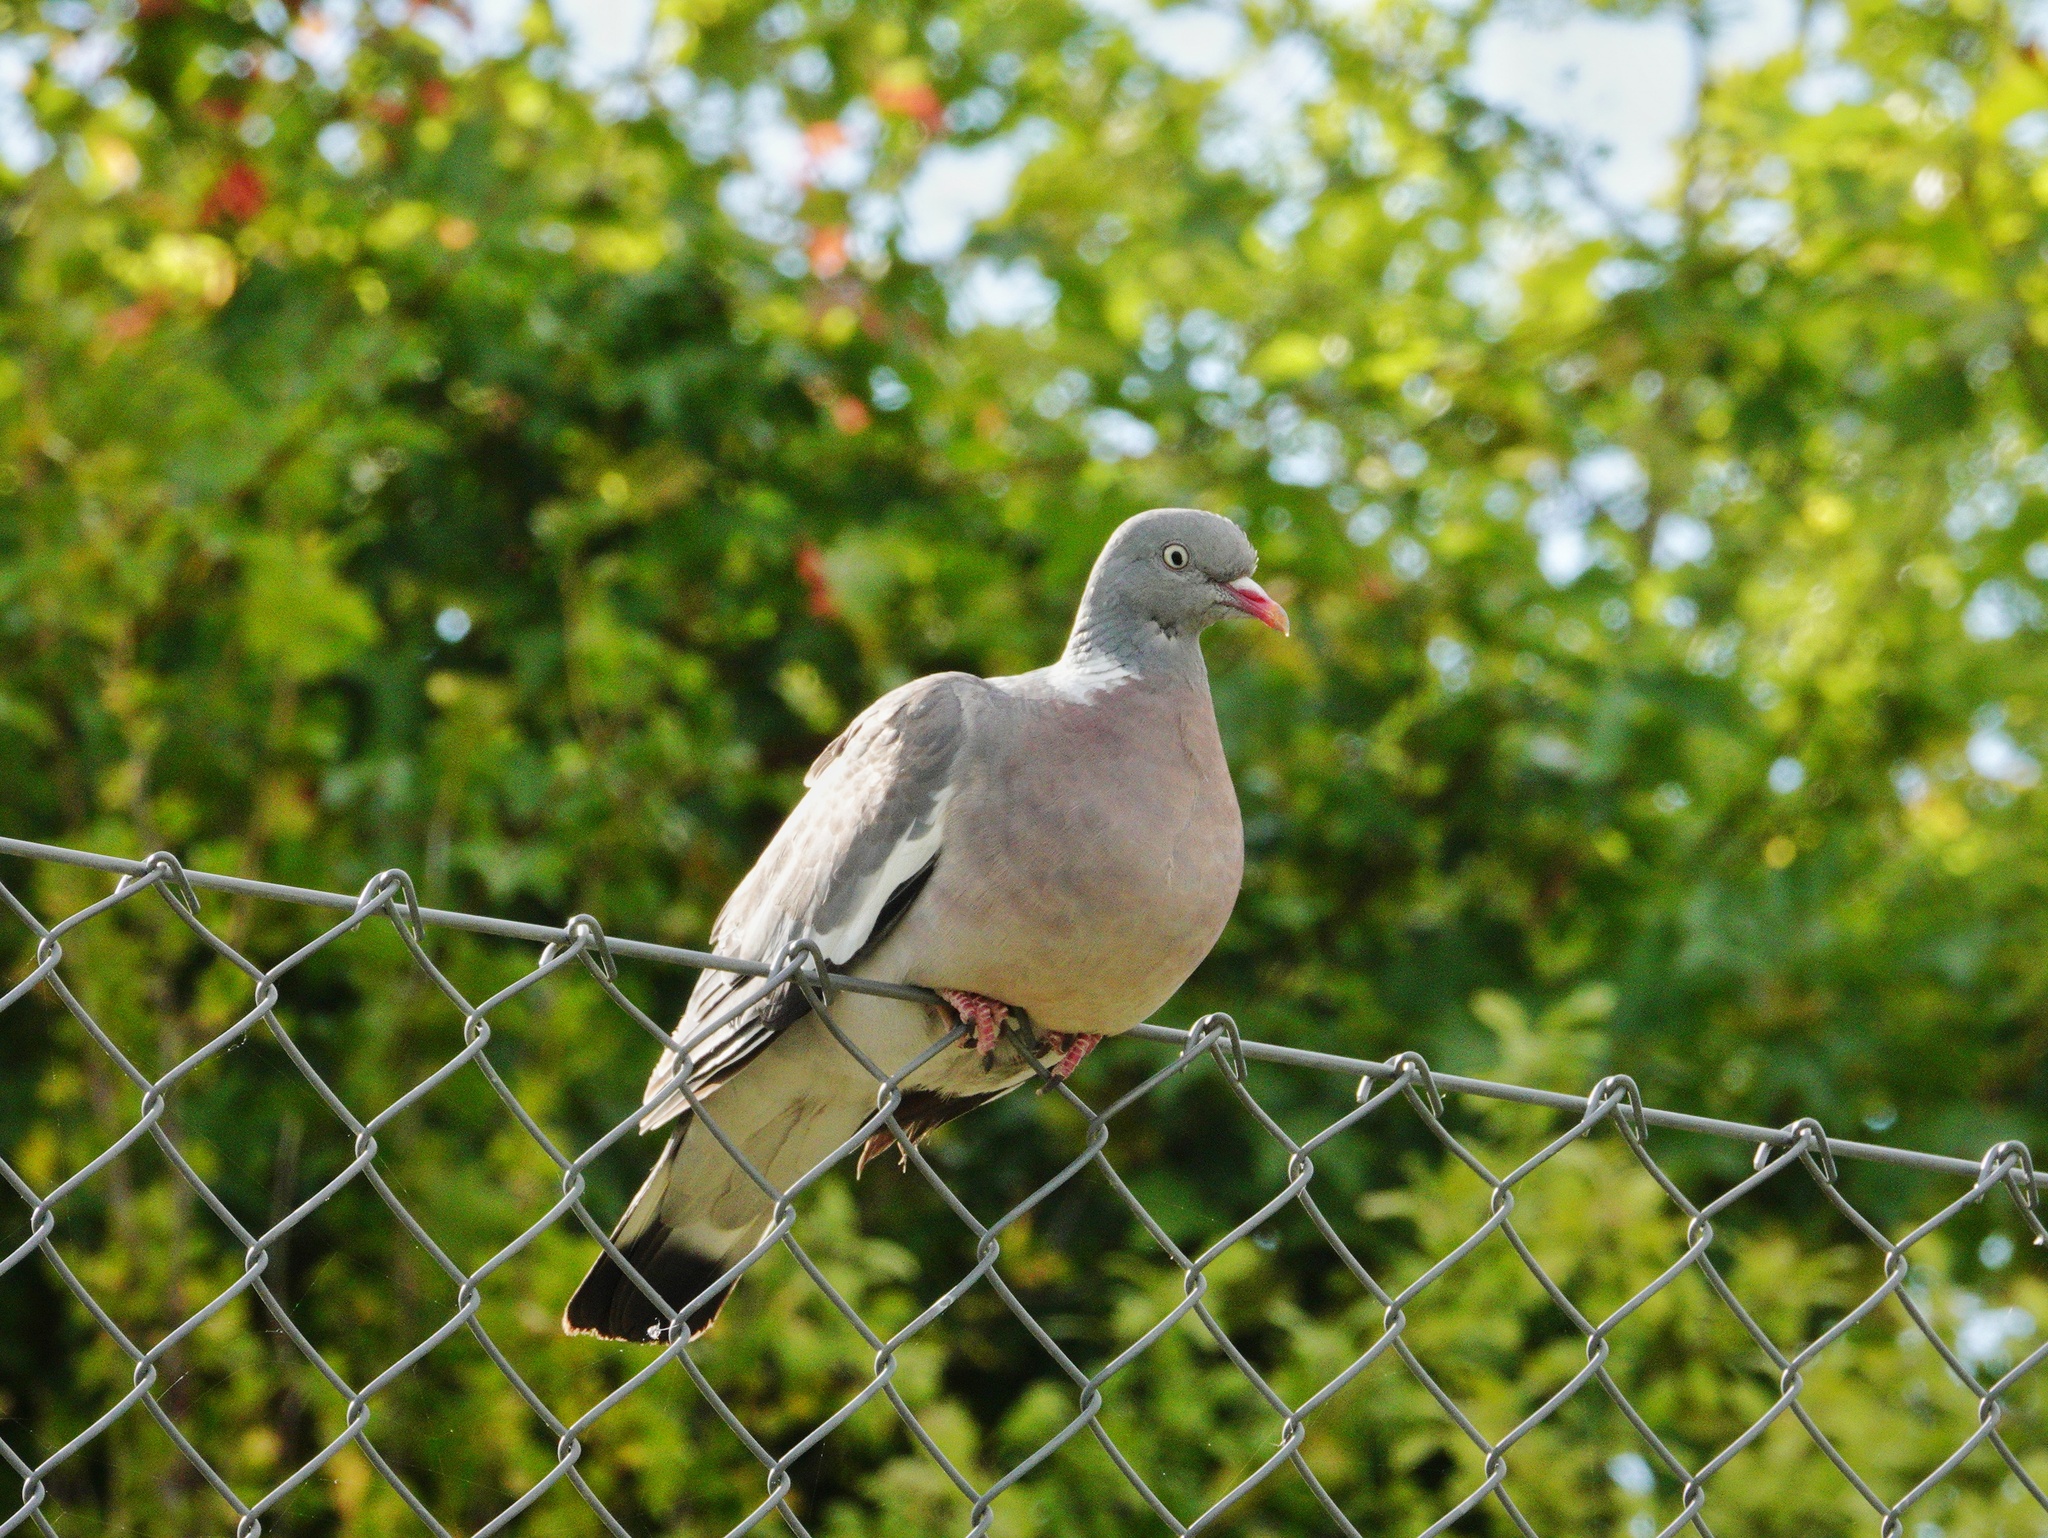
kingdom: Animalia
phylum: Chordata
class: Aves
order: Columbiformes
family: Columbidae
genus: Columba
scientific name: Columba palumbus
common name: Common wood pigeon
